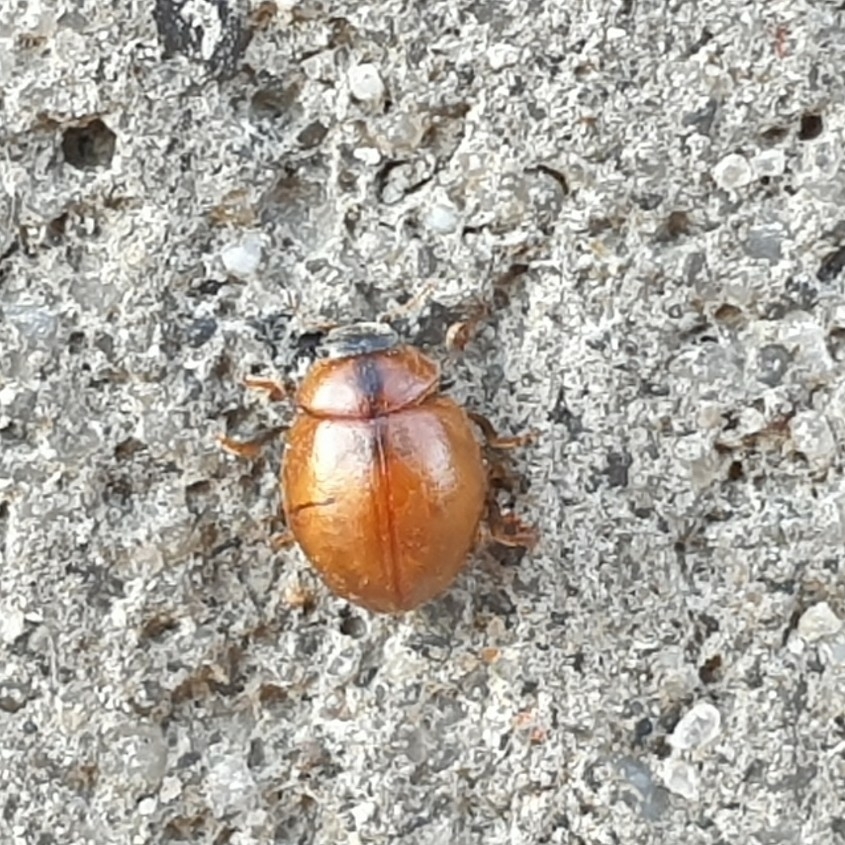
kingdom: Animalia
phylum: Arthropoda
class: Insecta
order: Coleoptera
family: Coccinellidae
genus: Cynegetis
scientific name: Cynegetis impunctata
